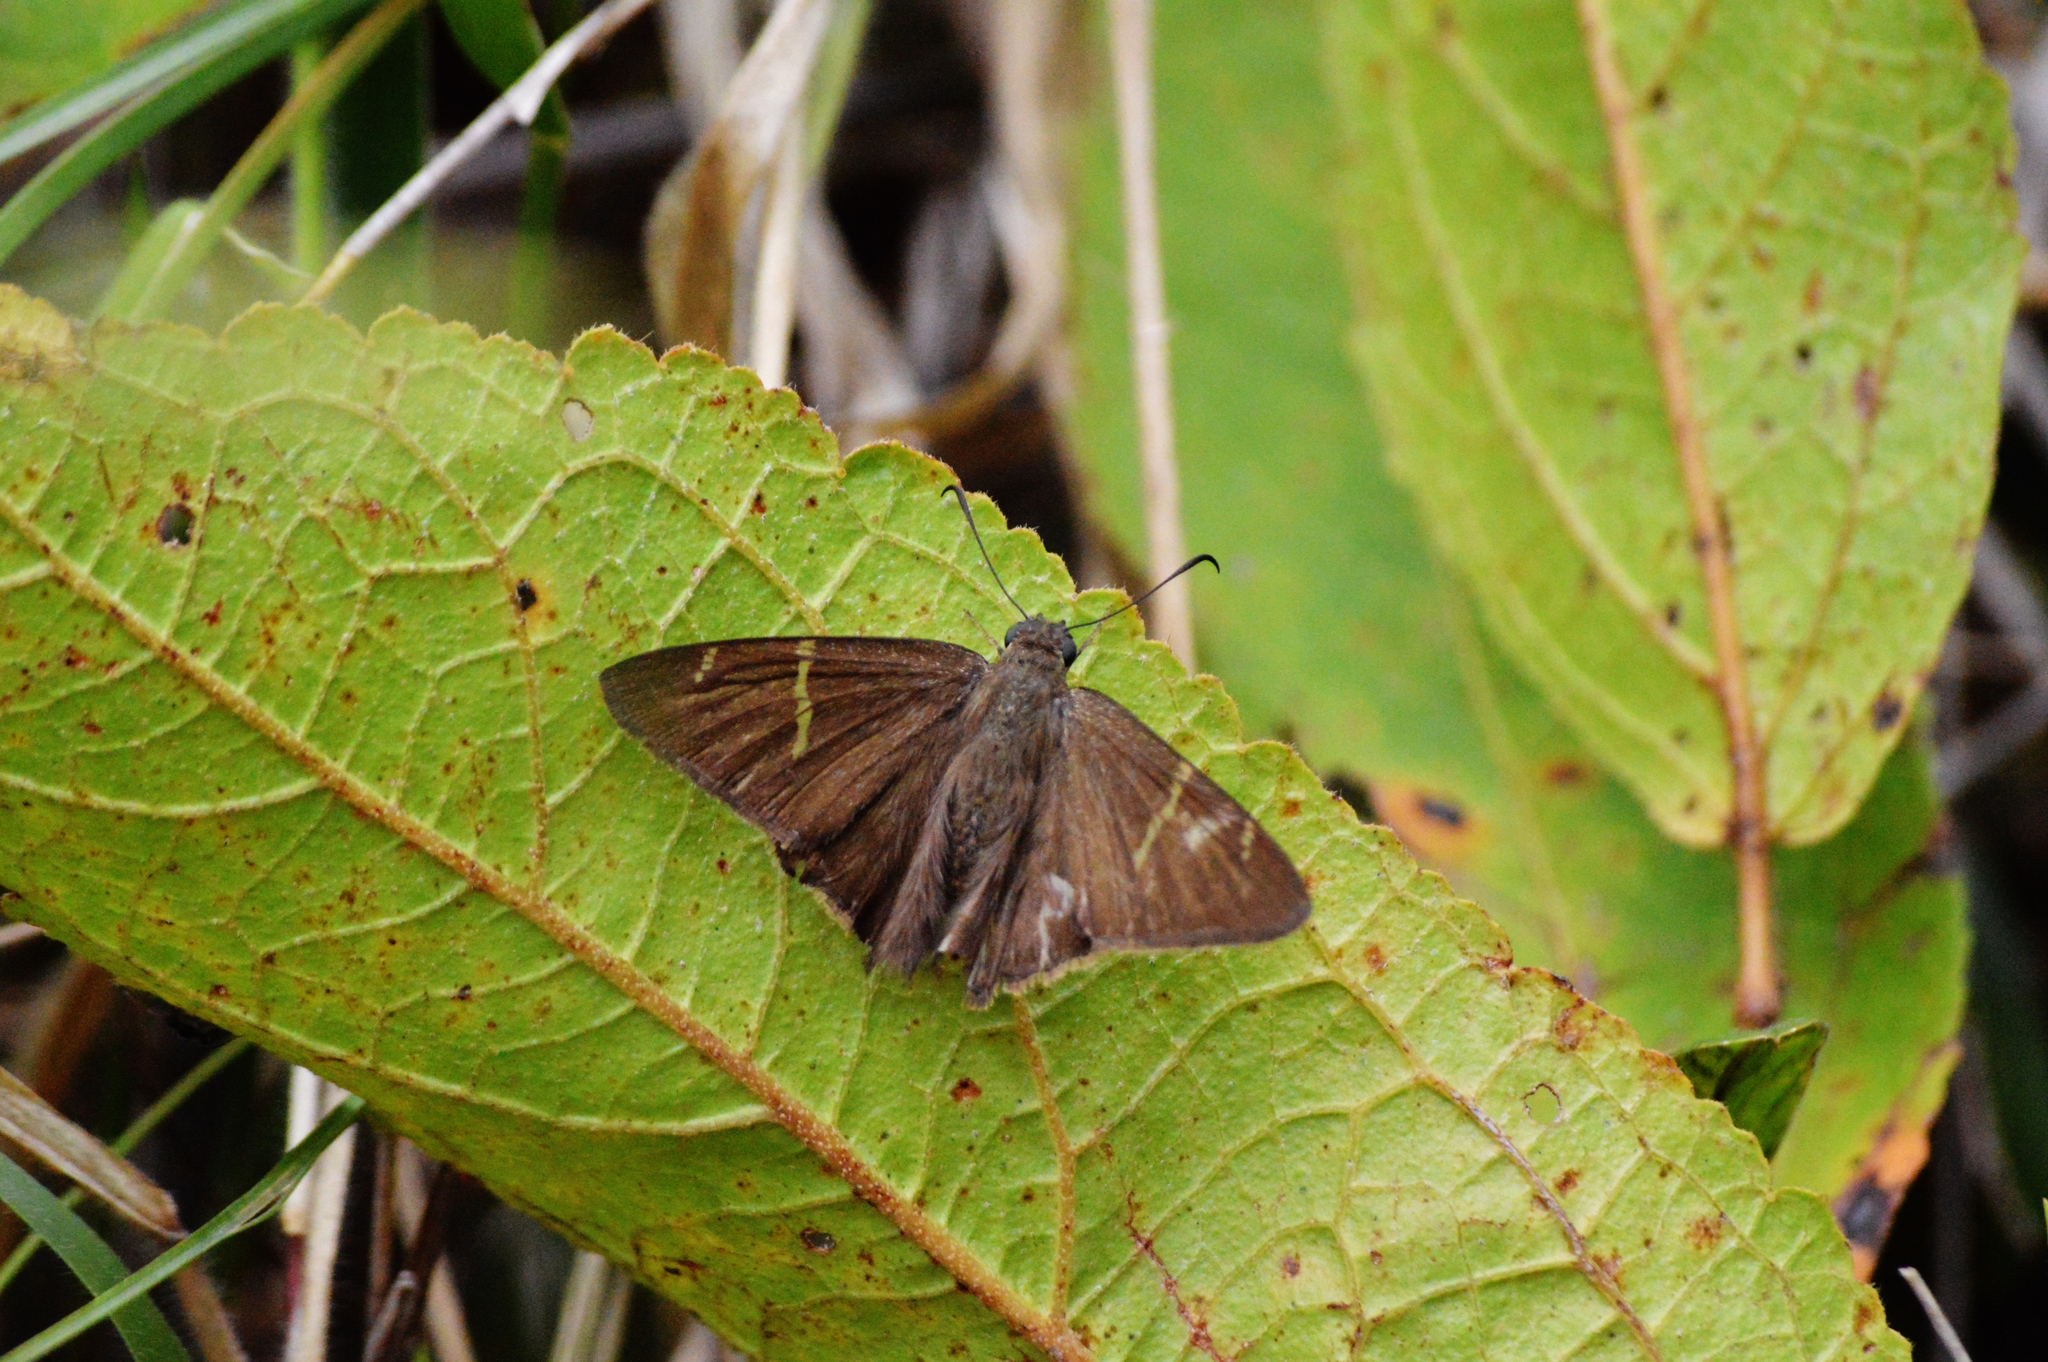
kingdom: Animalia
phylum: Arthropoda
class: Insecta
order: Lepidoptera
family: Hesperiidae
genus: Urbanus
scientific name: Urbanus teleus
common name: Teleus longtail
